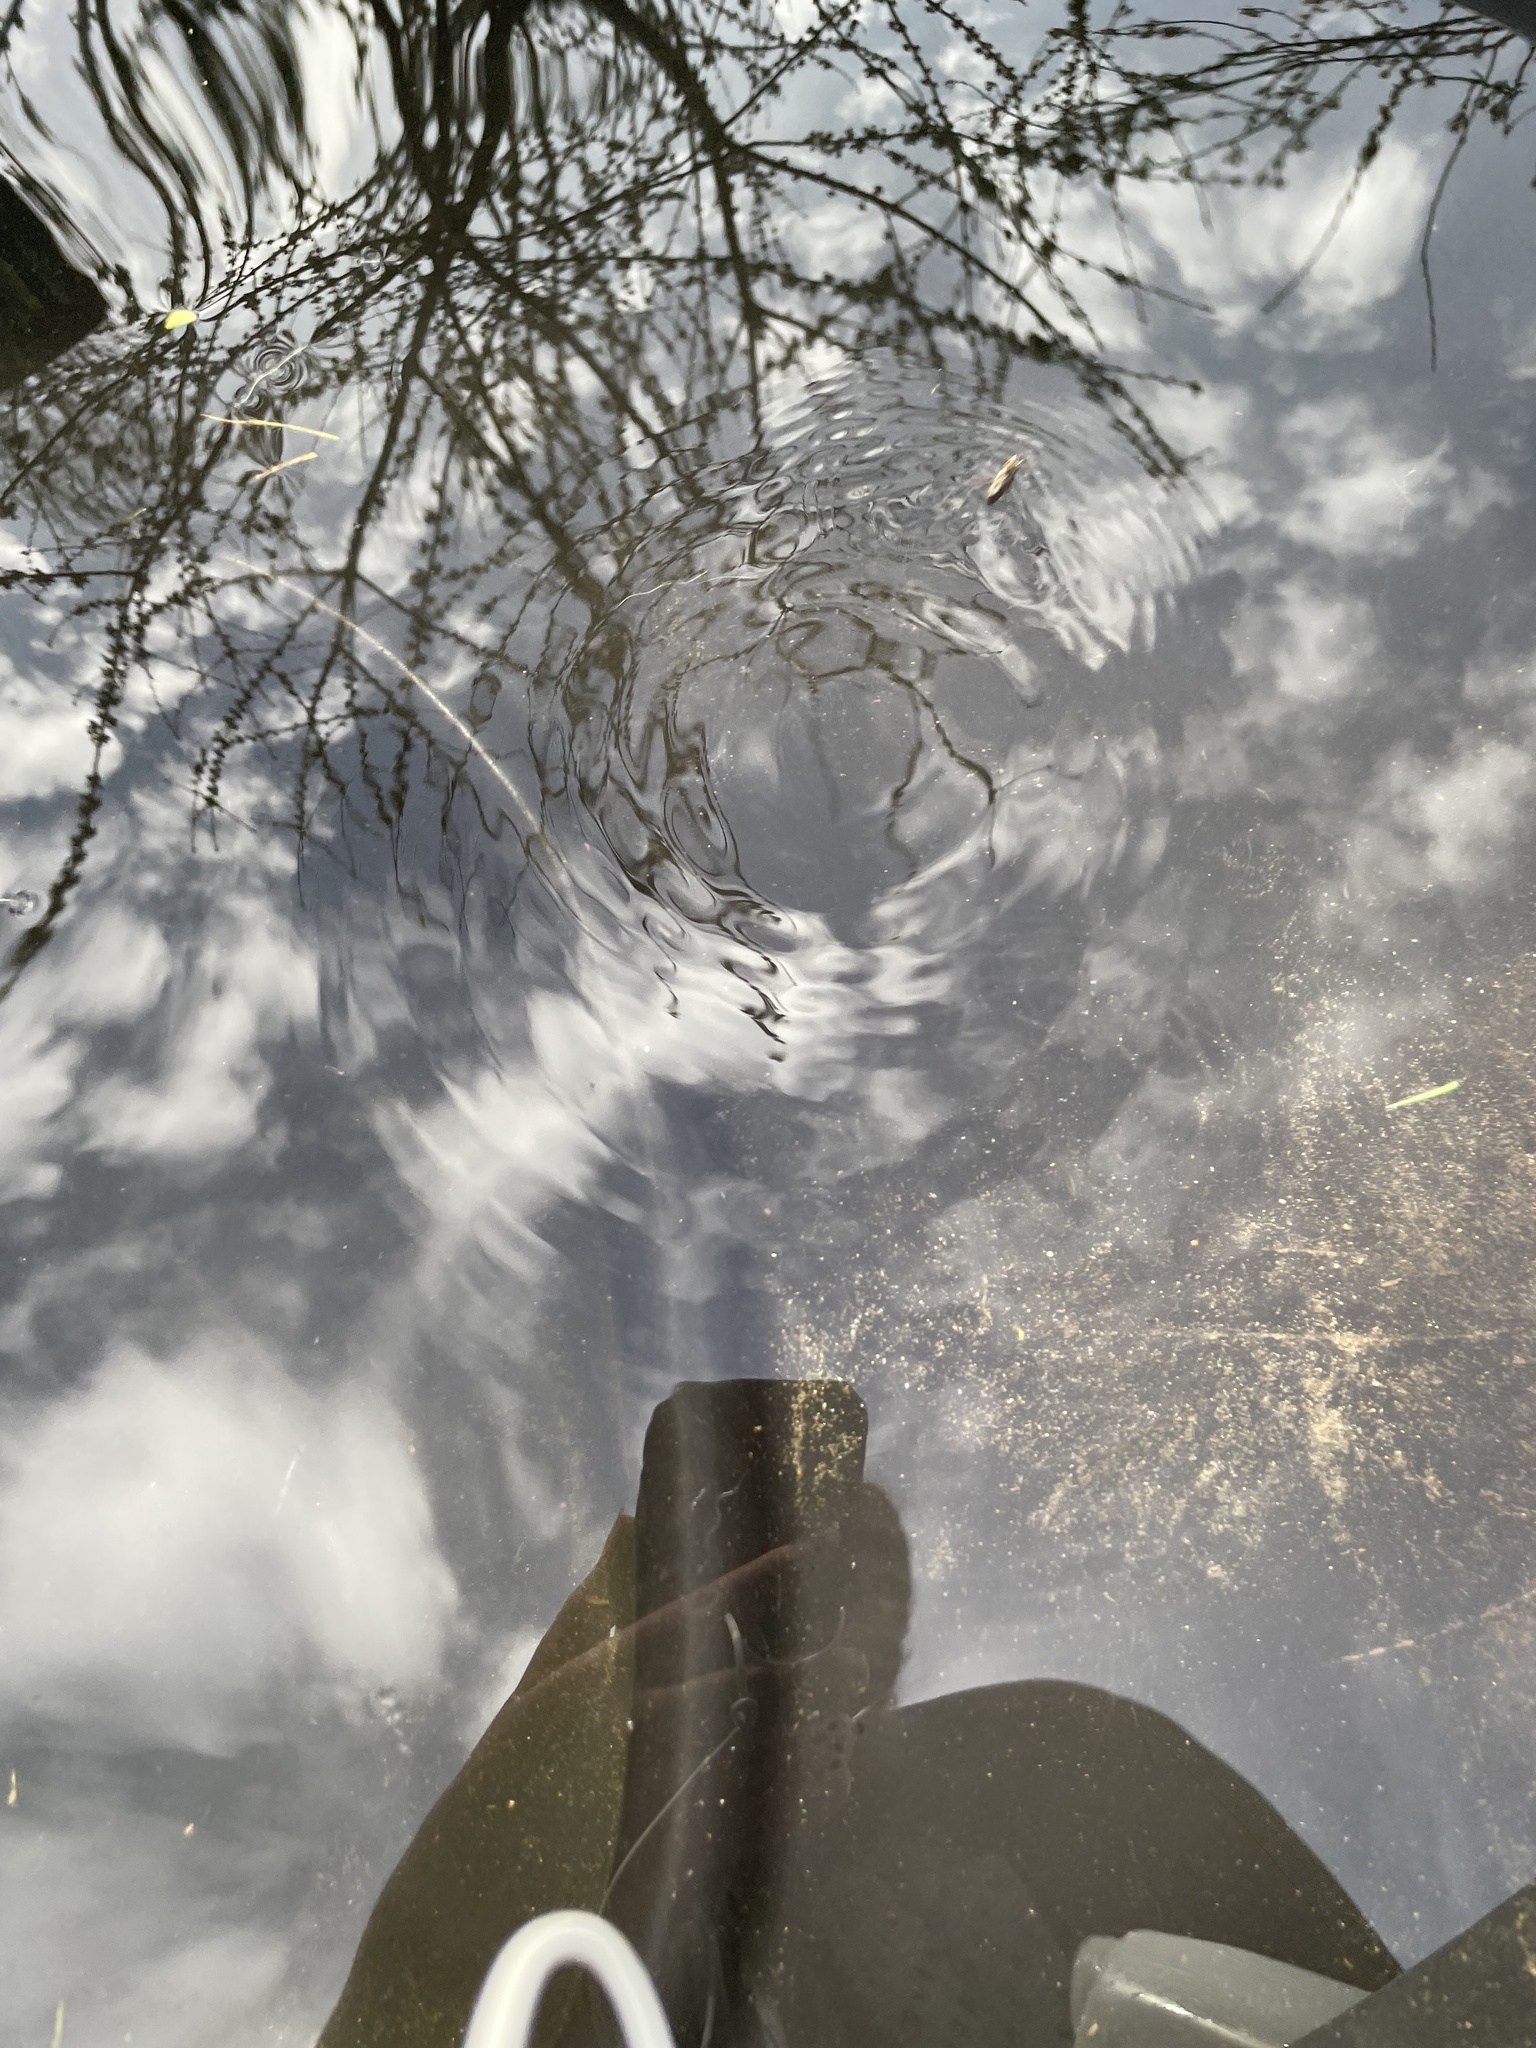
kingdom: Animalia
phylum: Arthropoda
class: Insecta
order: Hemiptera
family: Gerridae
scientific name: Gerridae
